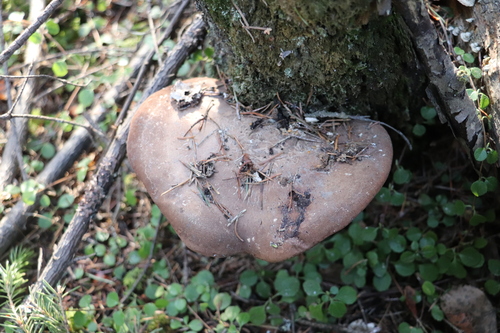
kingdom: Fungi
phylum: Basidiomycota
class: Agaricomycetes
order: Polyporales
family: Fomitopsidaceae
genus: Fomitopsis
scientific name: Fomitopsis betulina
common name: Birch polypore
